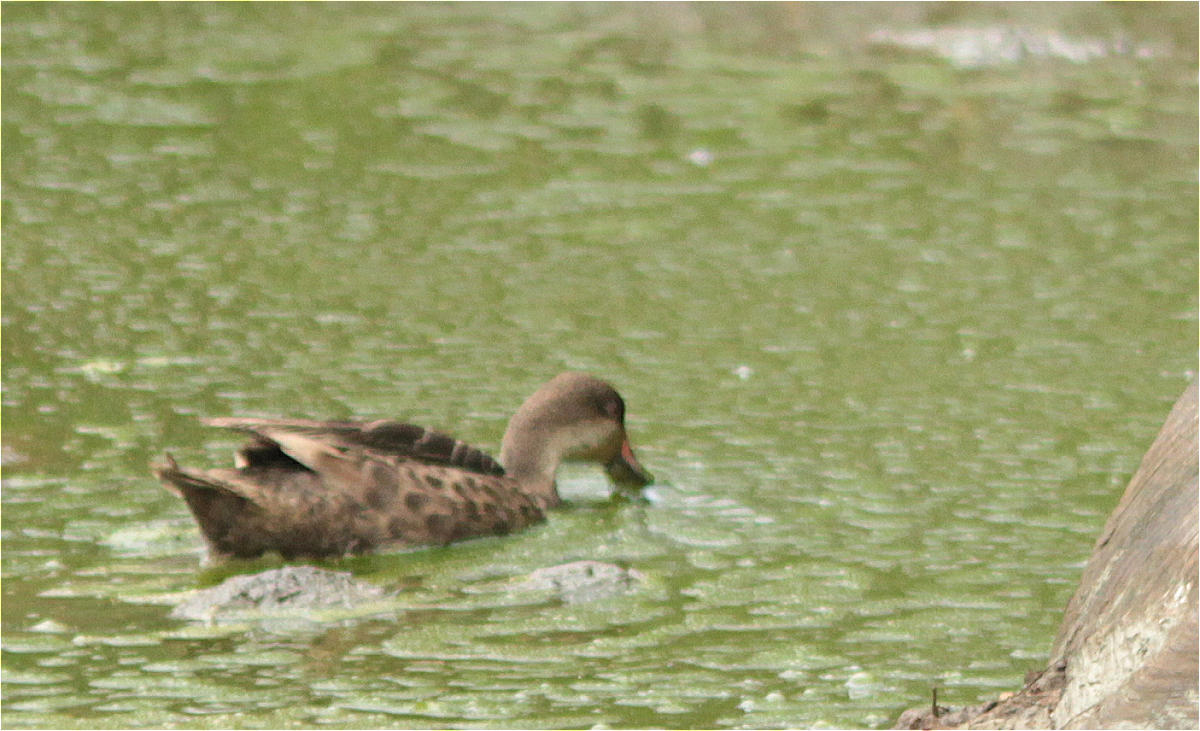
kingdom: Animalia
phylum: Chordata
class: Aves
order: Anseriformes
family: Anatidae
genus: Anas
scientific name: Anas bahamensis
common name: White-cheeked pintail
